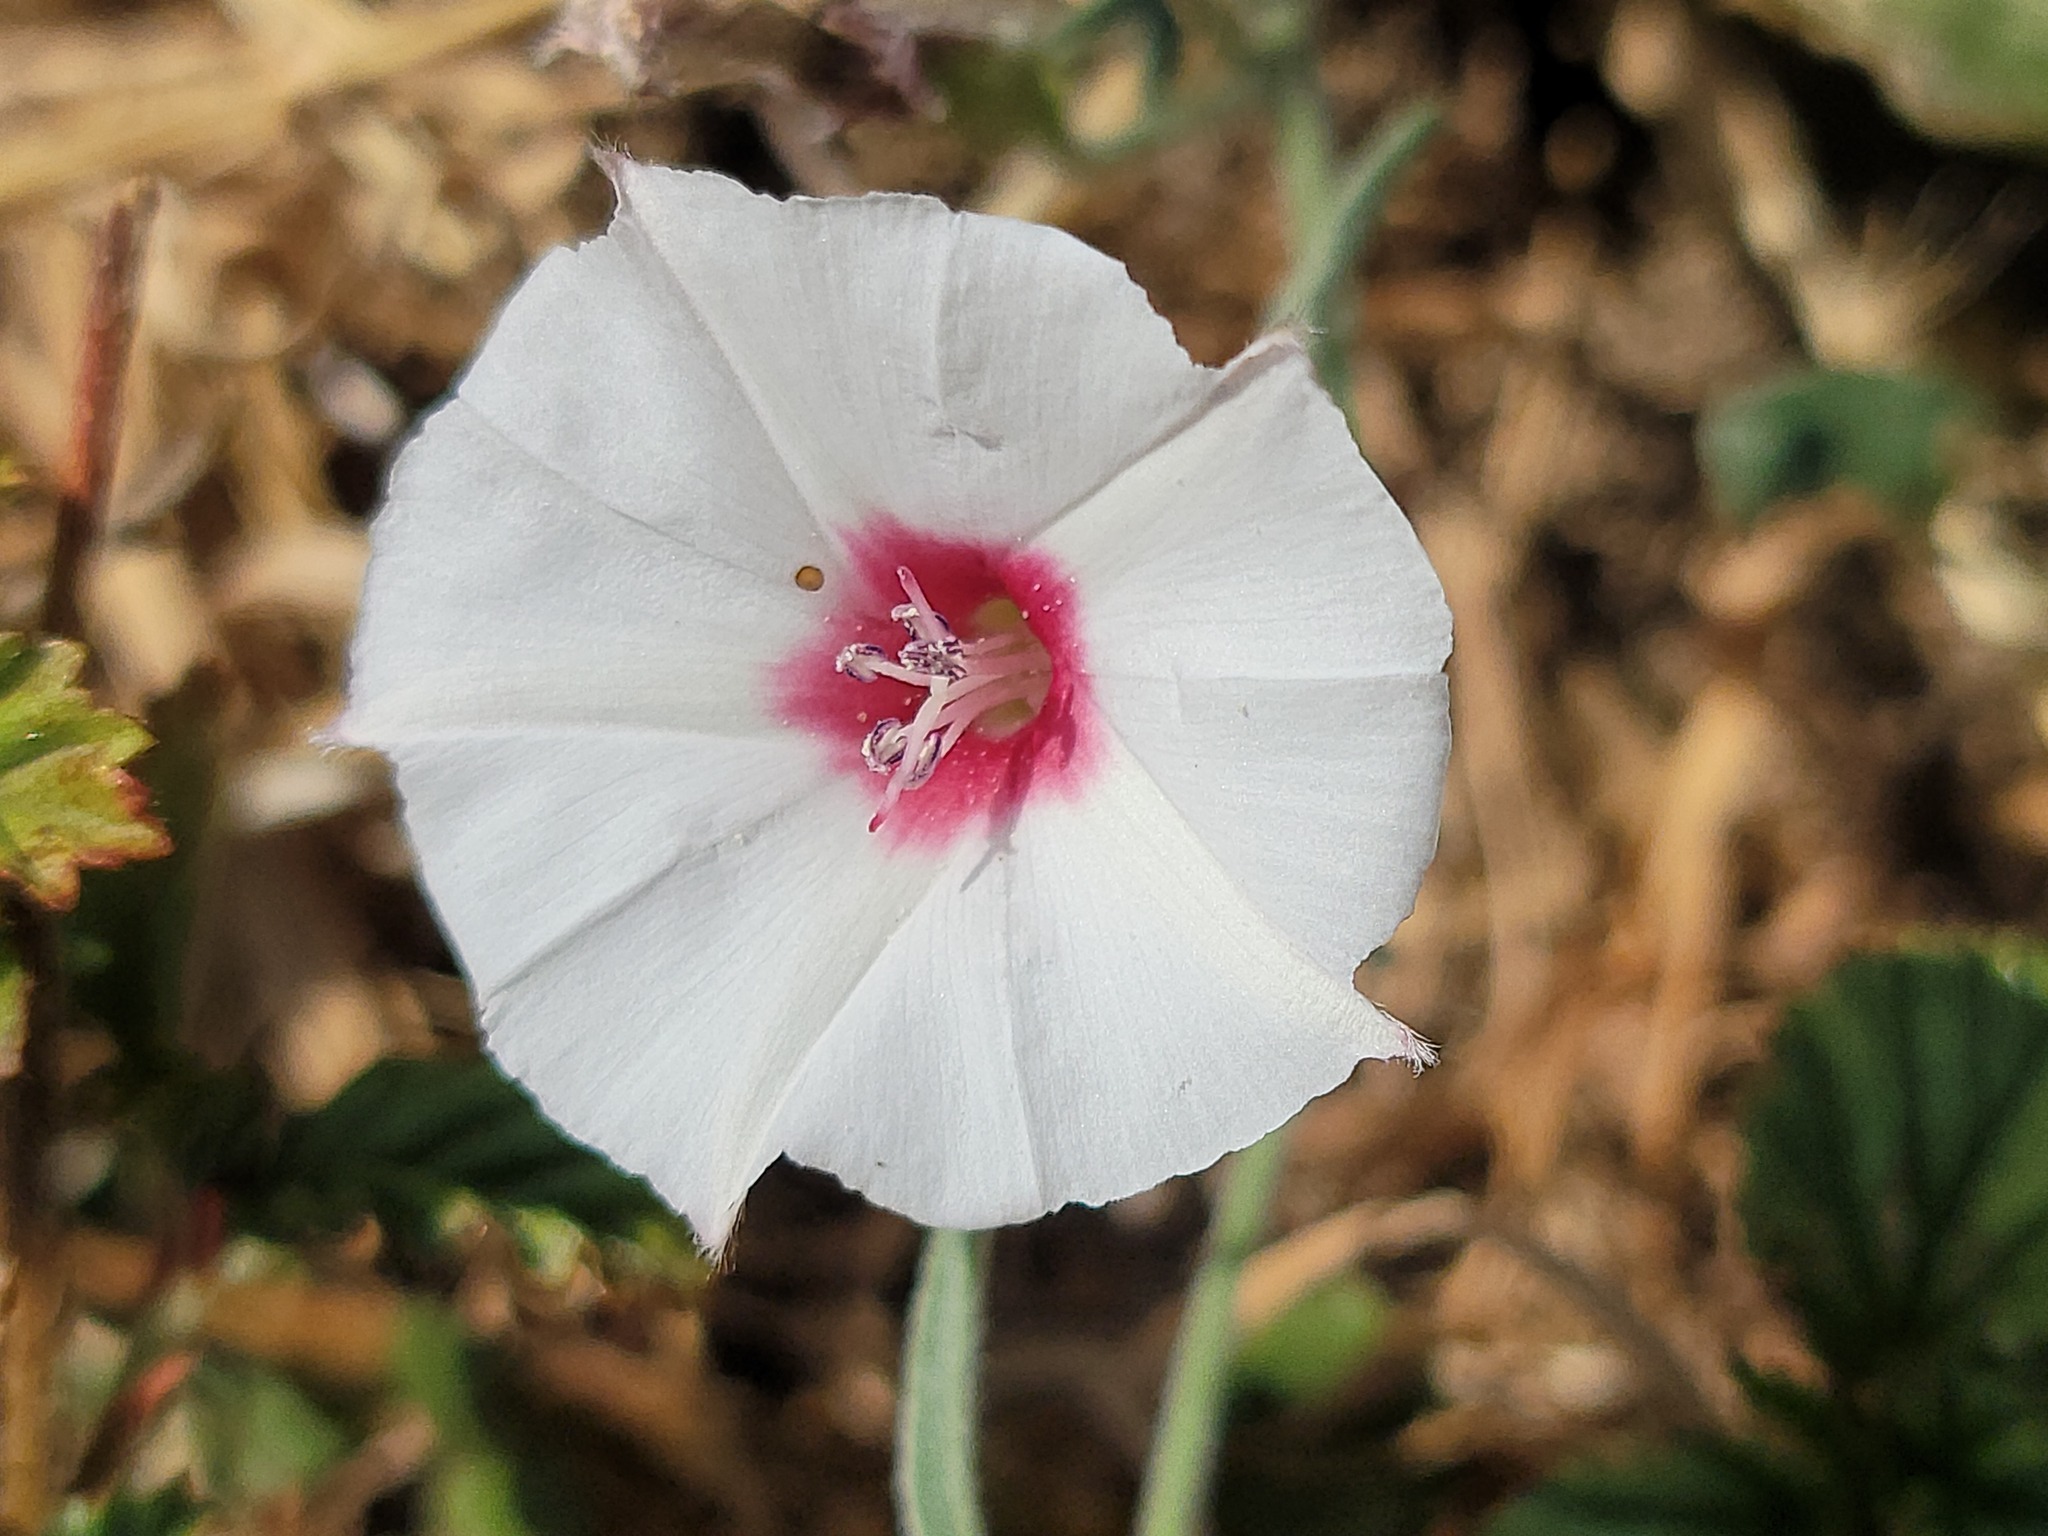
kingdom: Plantae
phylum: Tracheophyta
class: Magnoliopsida
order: Solanales
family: Convolvulaceae
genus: Convolvulus
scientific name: Convolvulus equitans
